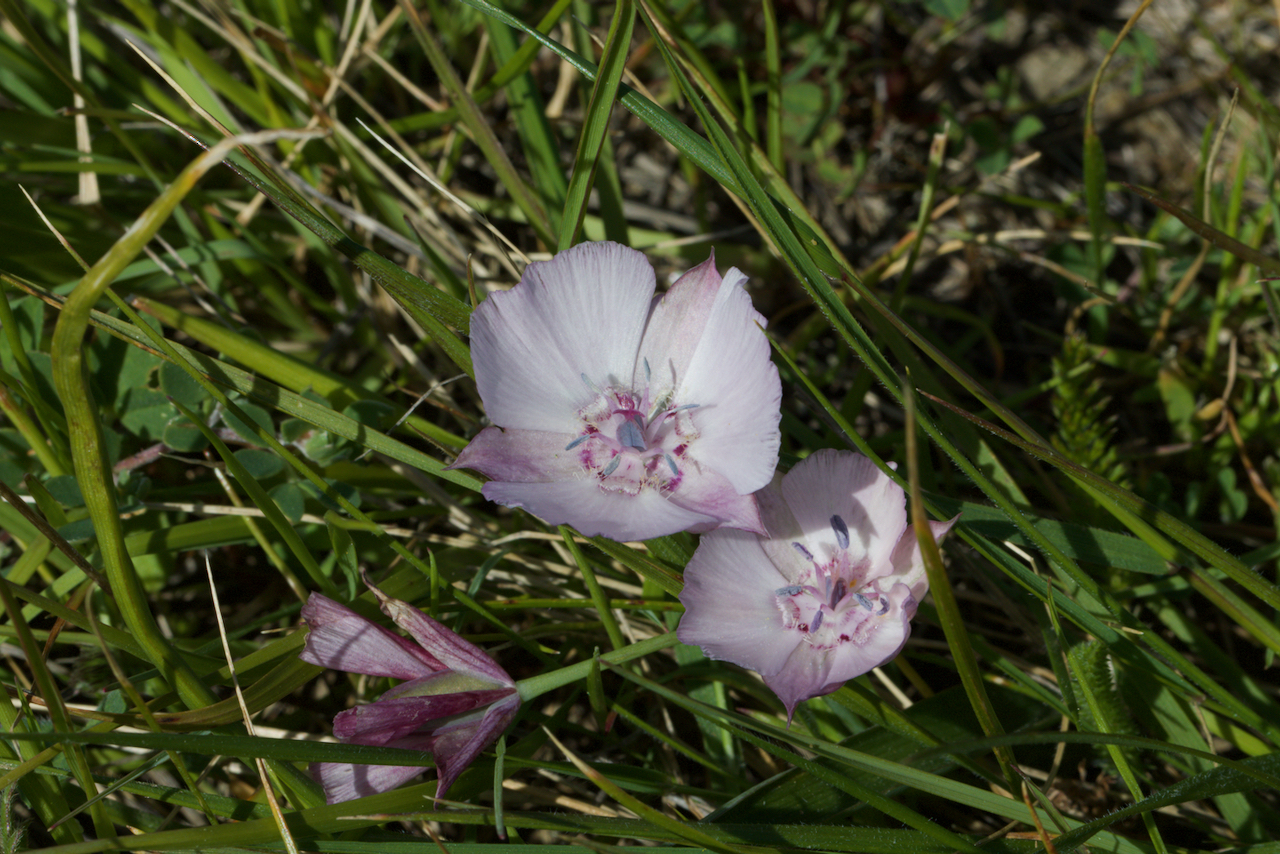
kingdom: Plantae
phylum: Tracheophyta
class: Liliopsida
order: Liliales
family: Liliaceae
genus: Calochortus
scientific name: Calochortus umbellatus
